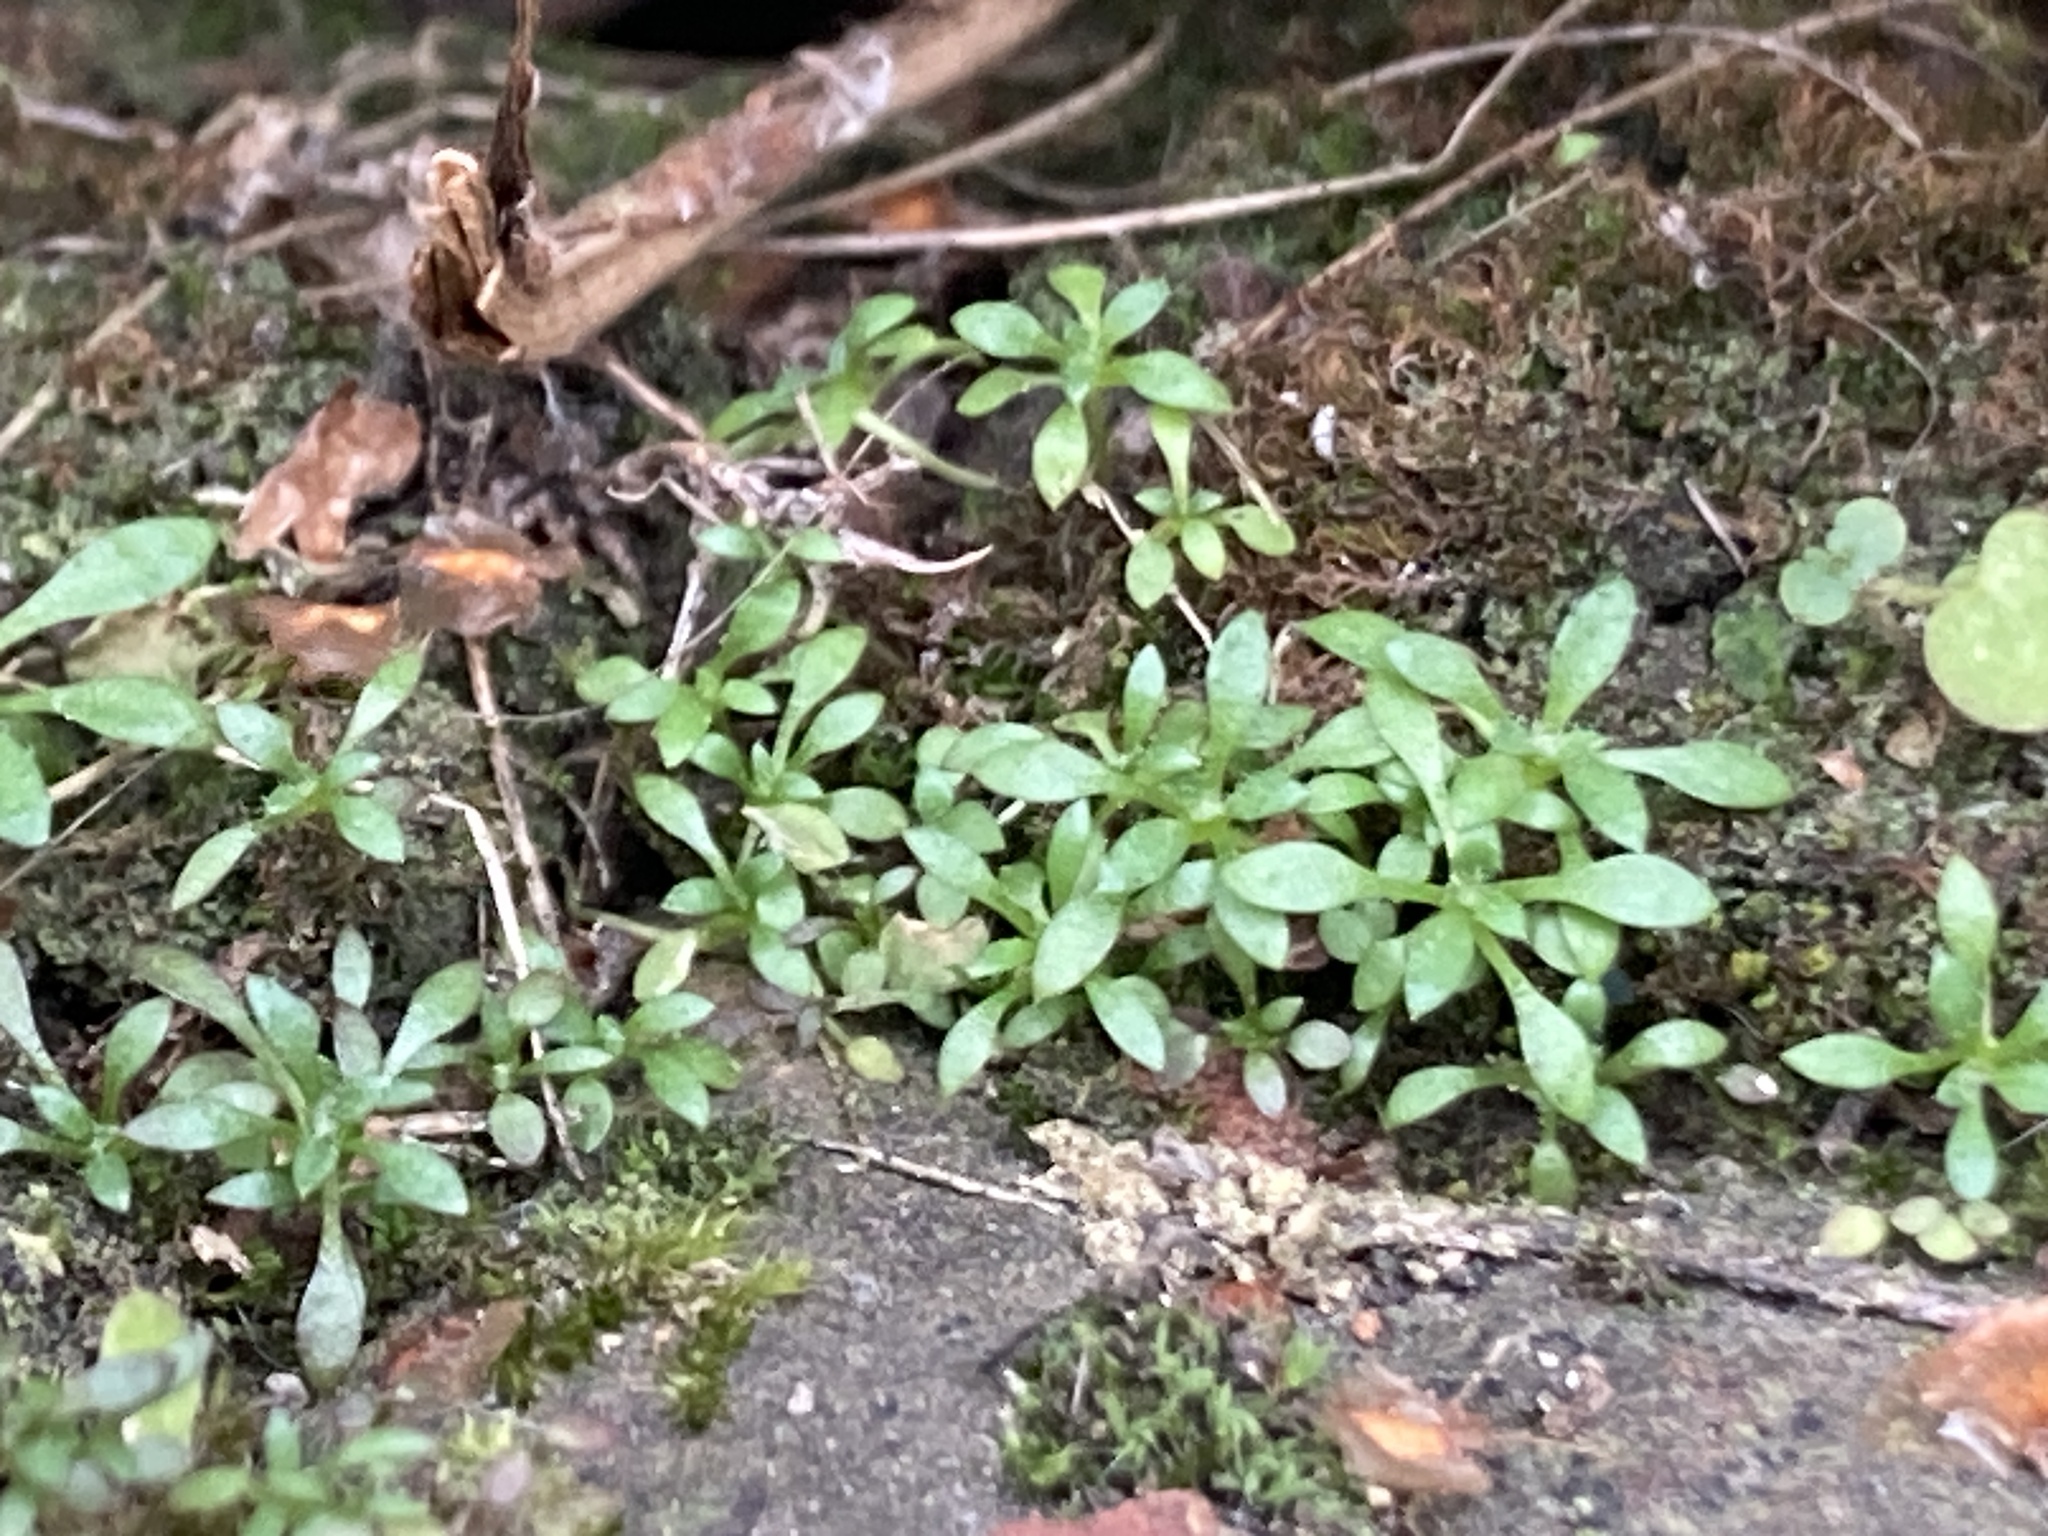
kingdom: Plantae
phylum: Tracheophyta
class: Magnoliopsida
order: Brassicales
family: Brassicaceae
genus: Draba
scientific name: Draba verna
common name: Spring draba
